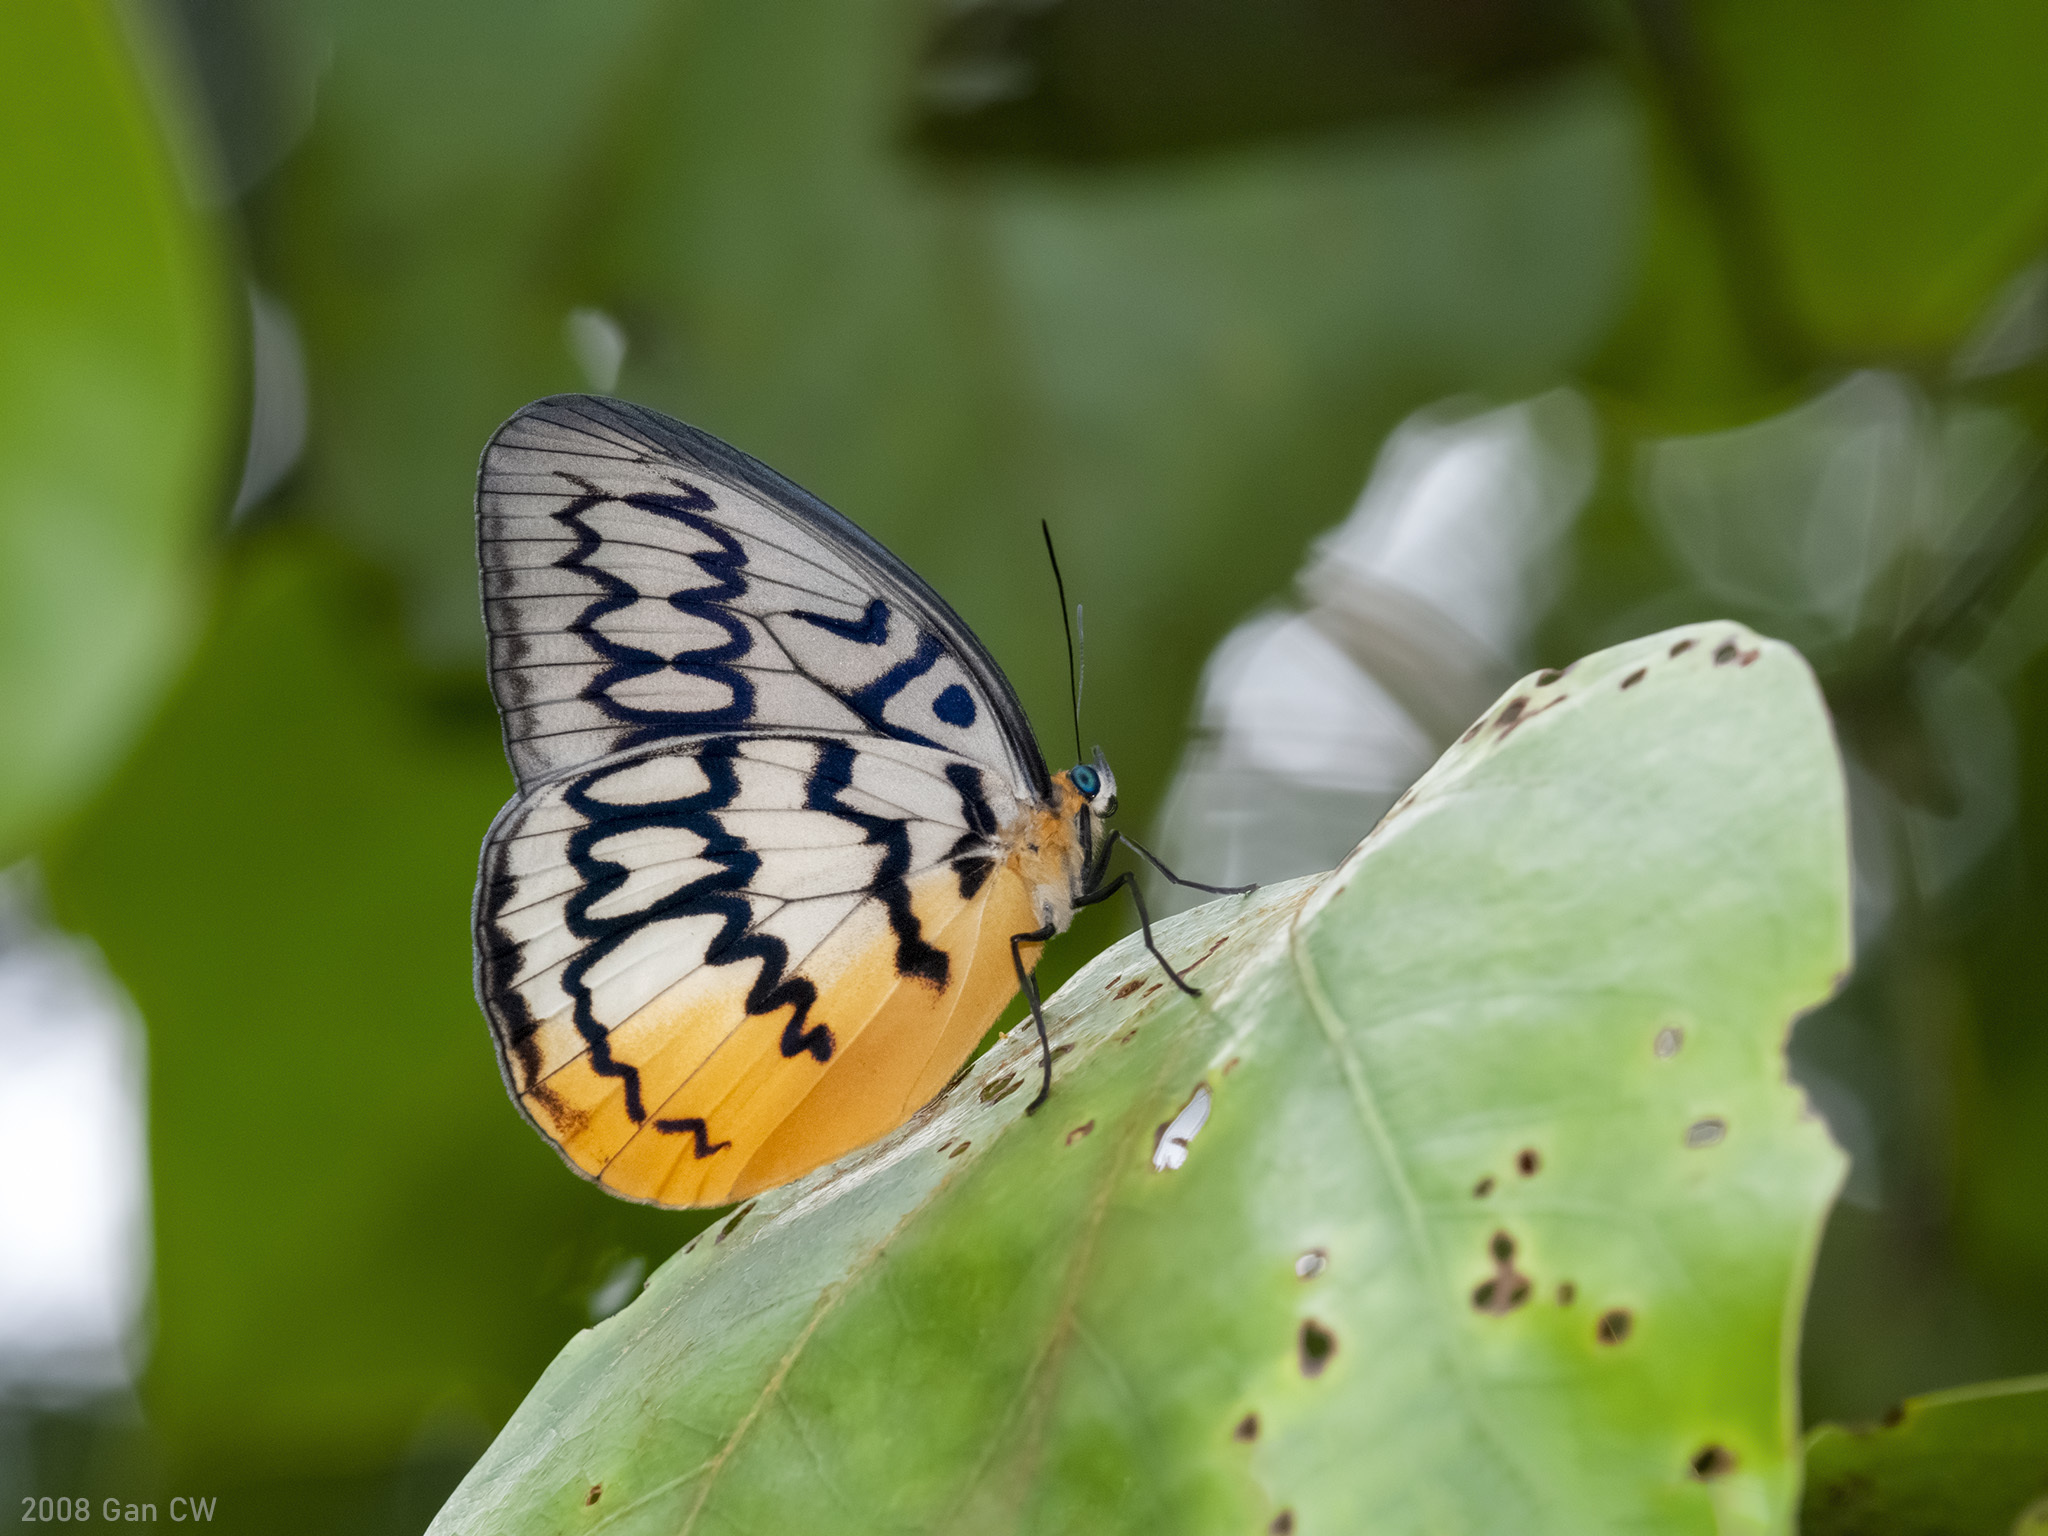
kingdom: Animalia
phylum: Arthropoda
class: Insecta
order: Lepidoptera
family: Nymphalidae
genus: Faunis
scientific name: Faunis Melanocyma faunula
